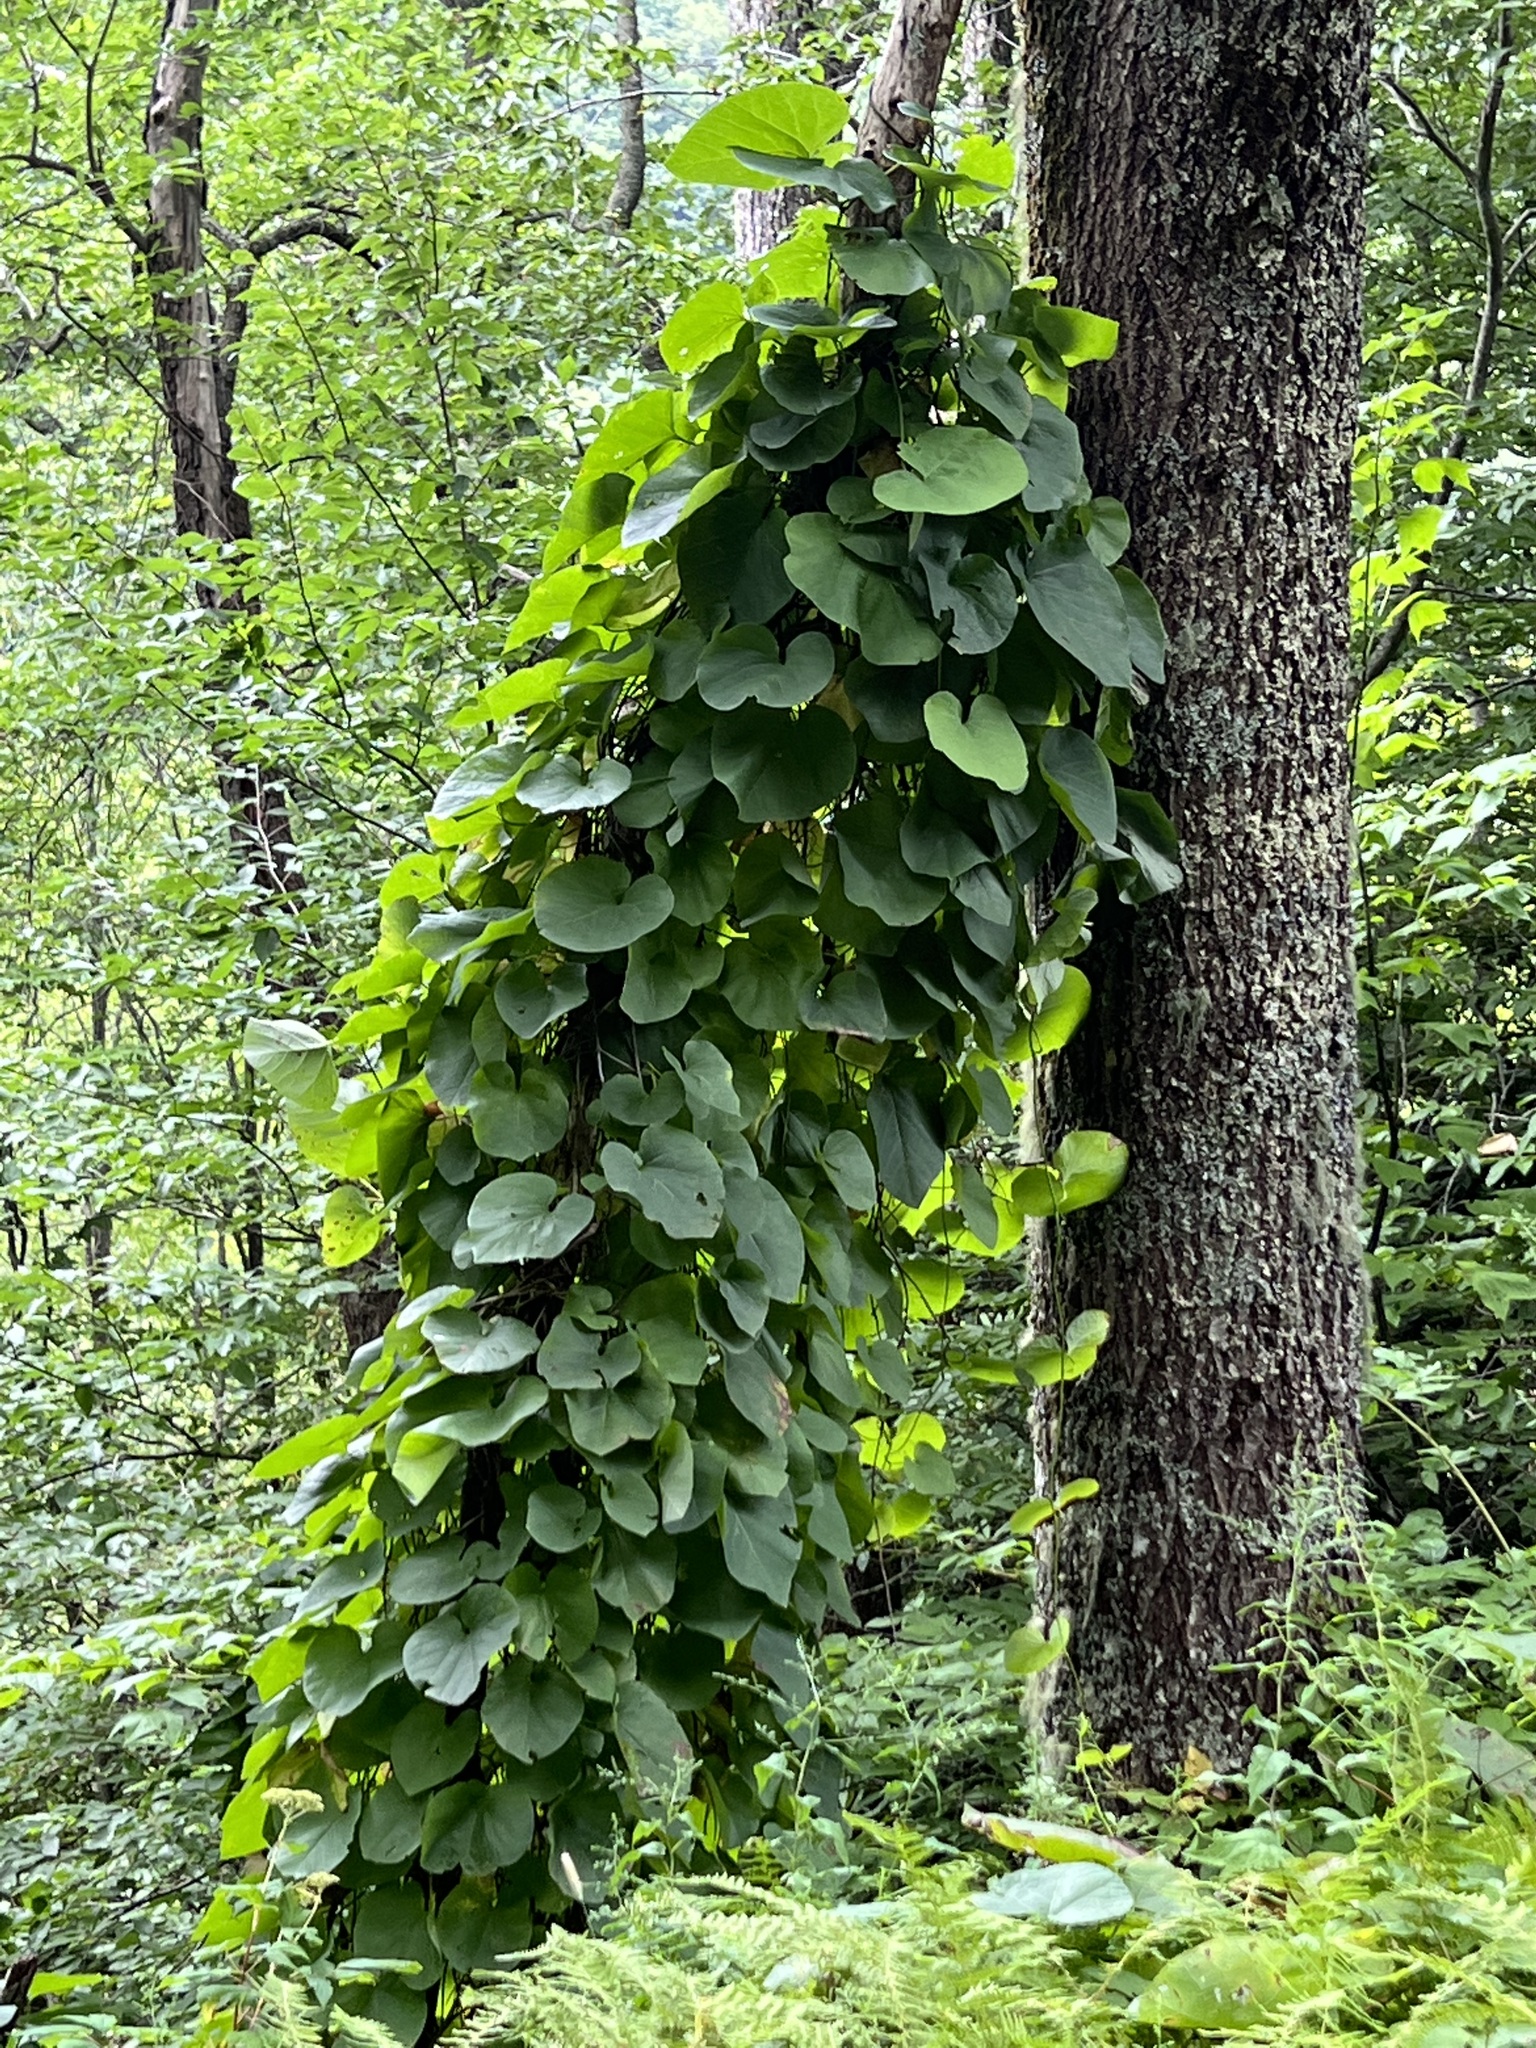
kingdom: Plantae
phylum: Tracheophyta
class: Magnoliopsida
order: Piperales
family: Aristolochiaceae
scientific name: Aristolochiaceae
